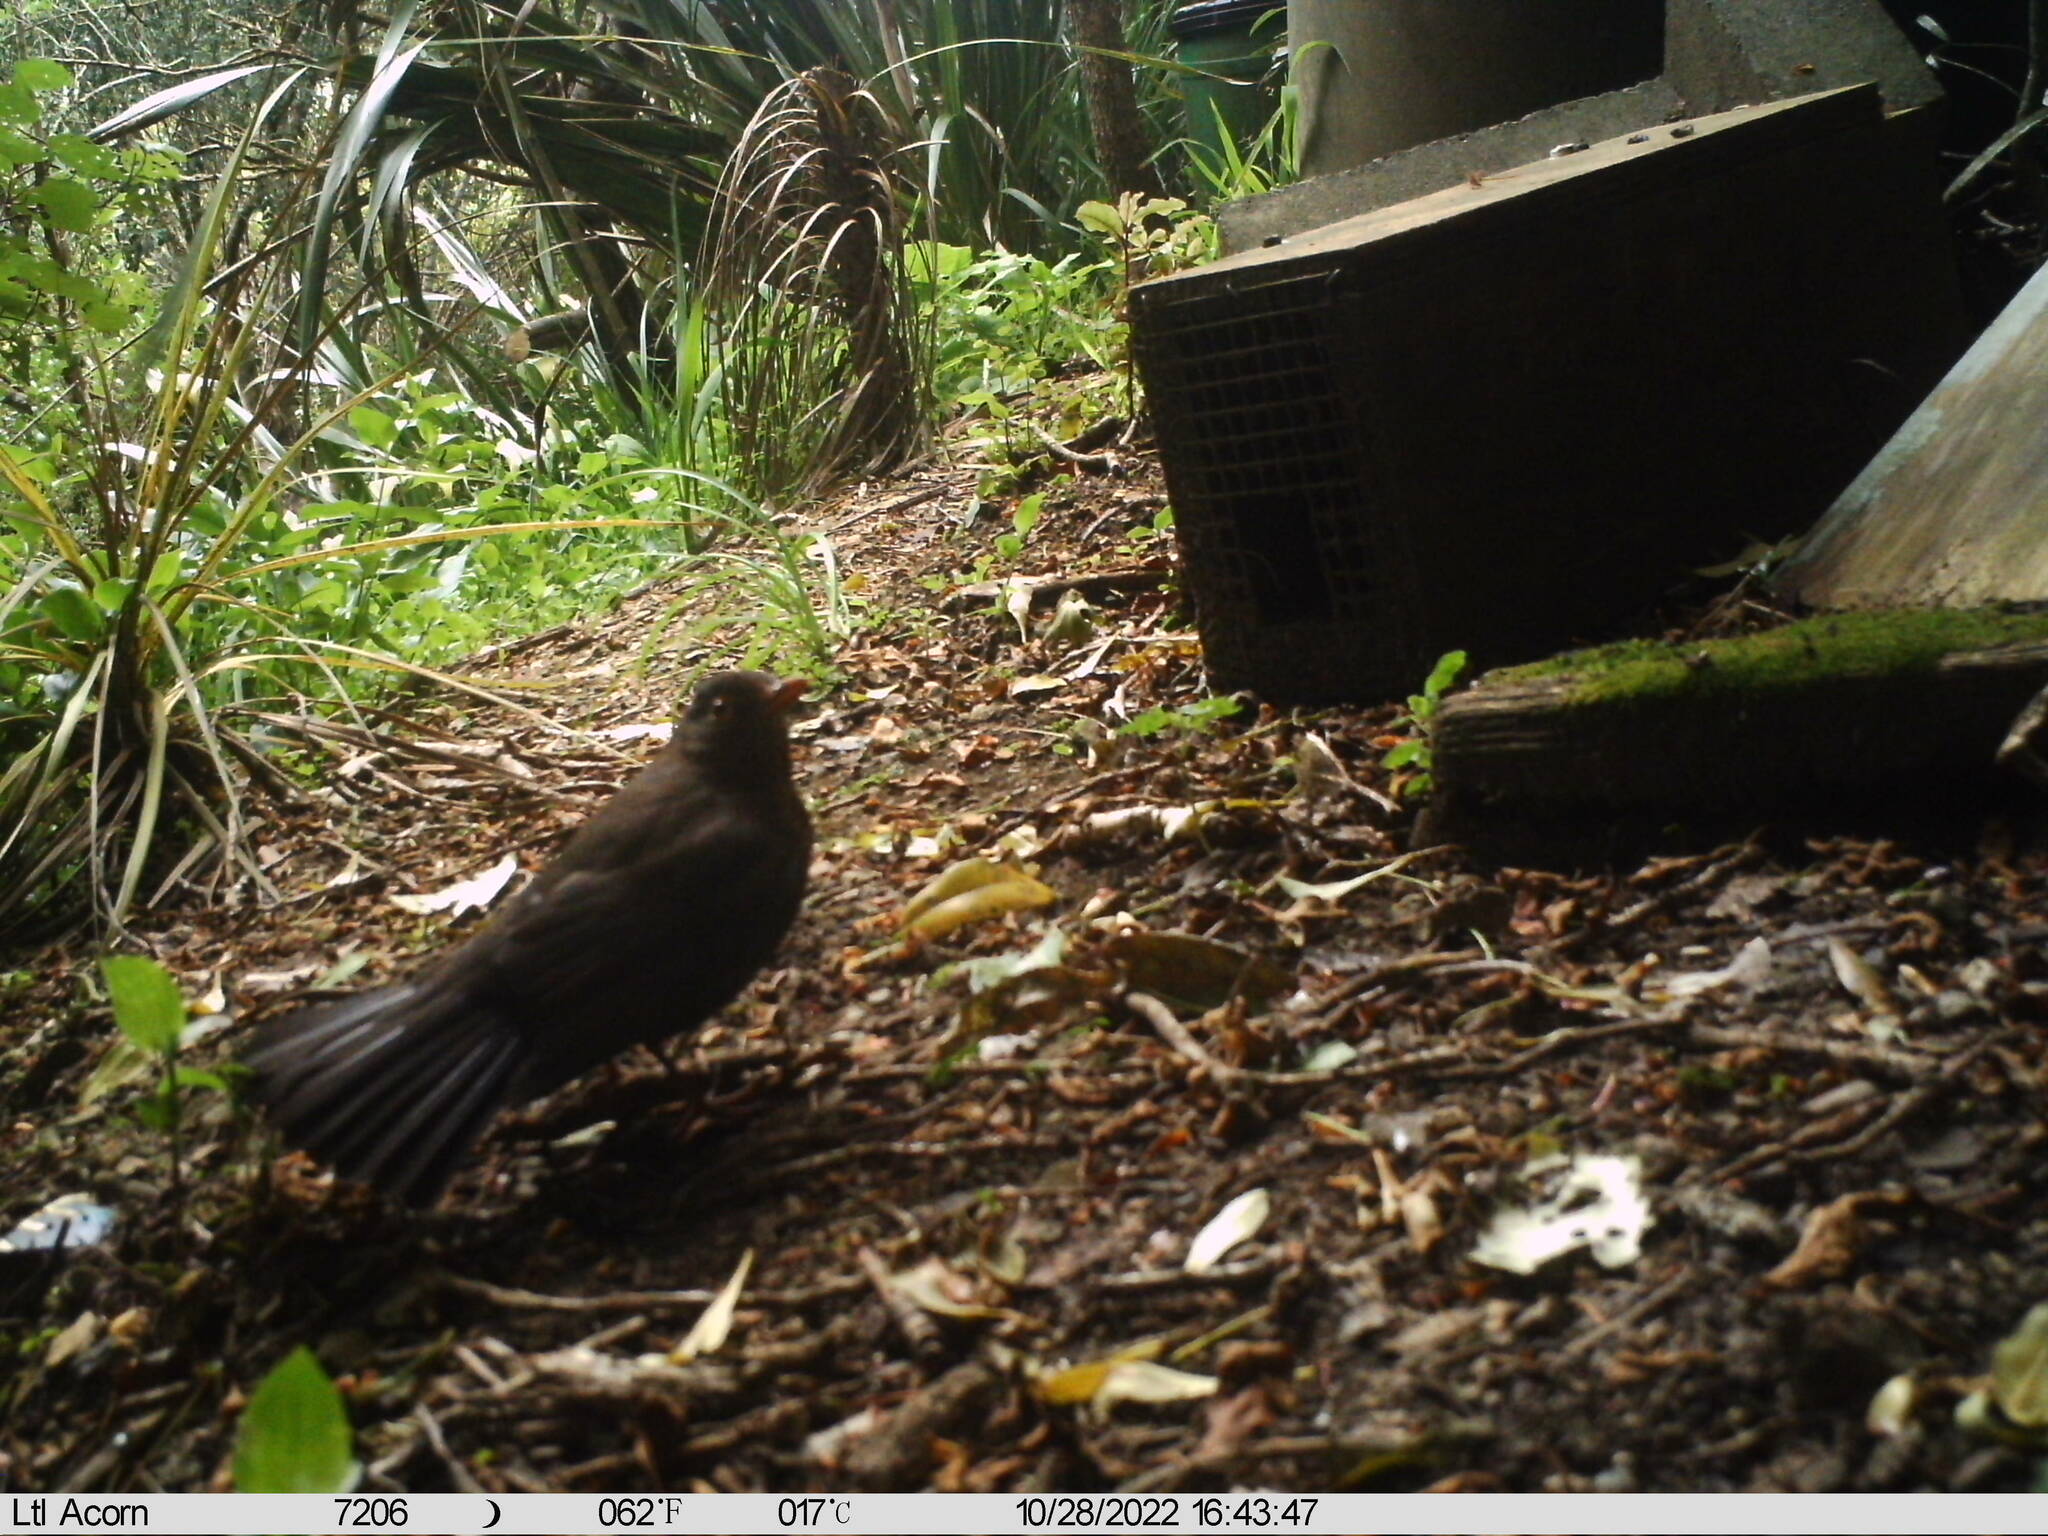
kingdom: Animalia
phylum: Chordata
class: Aves
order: Passeriformes
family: Turdidae
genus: Turdus
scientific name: Turdus merula
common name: Common blackbird
